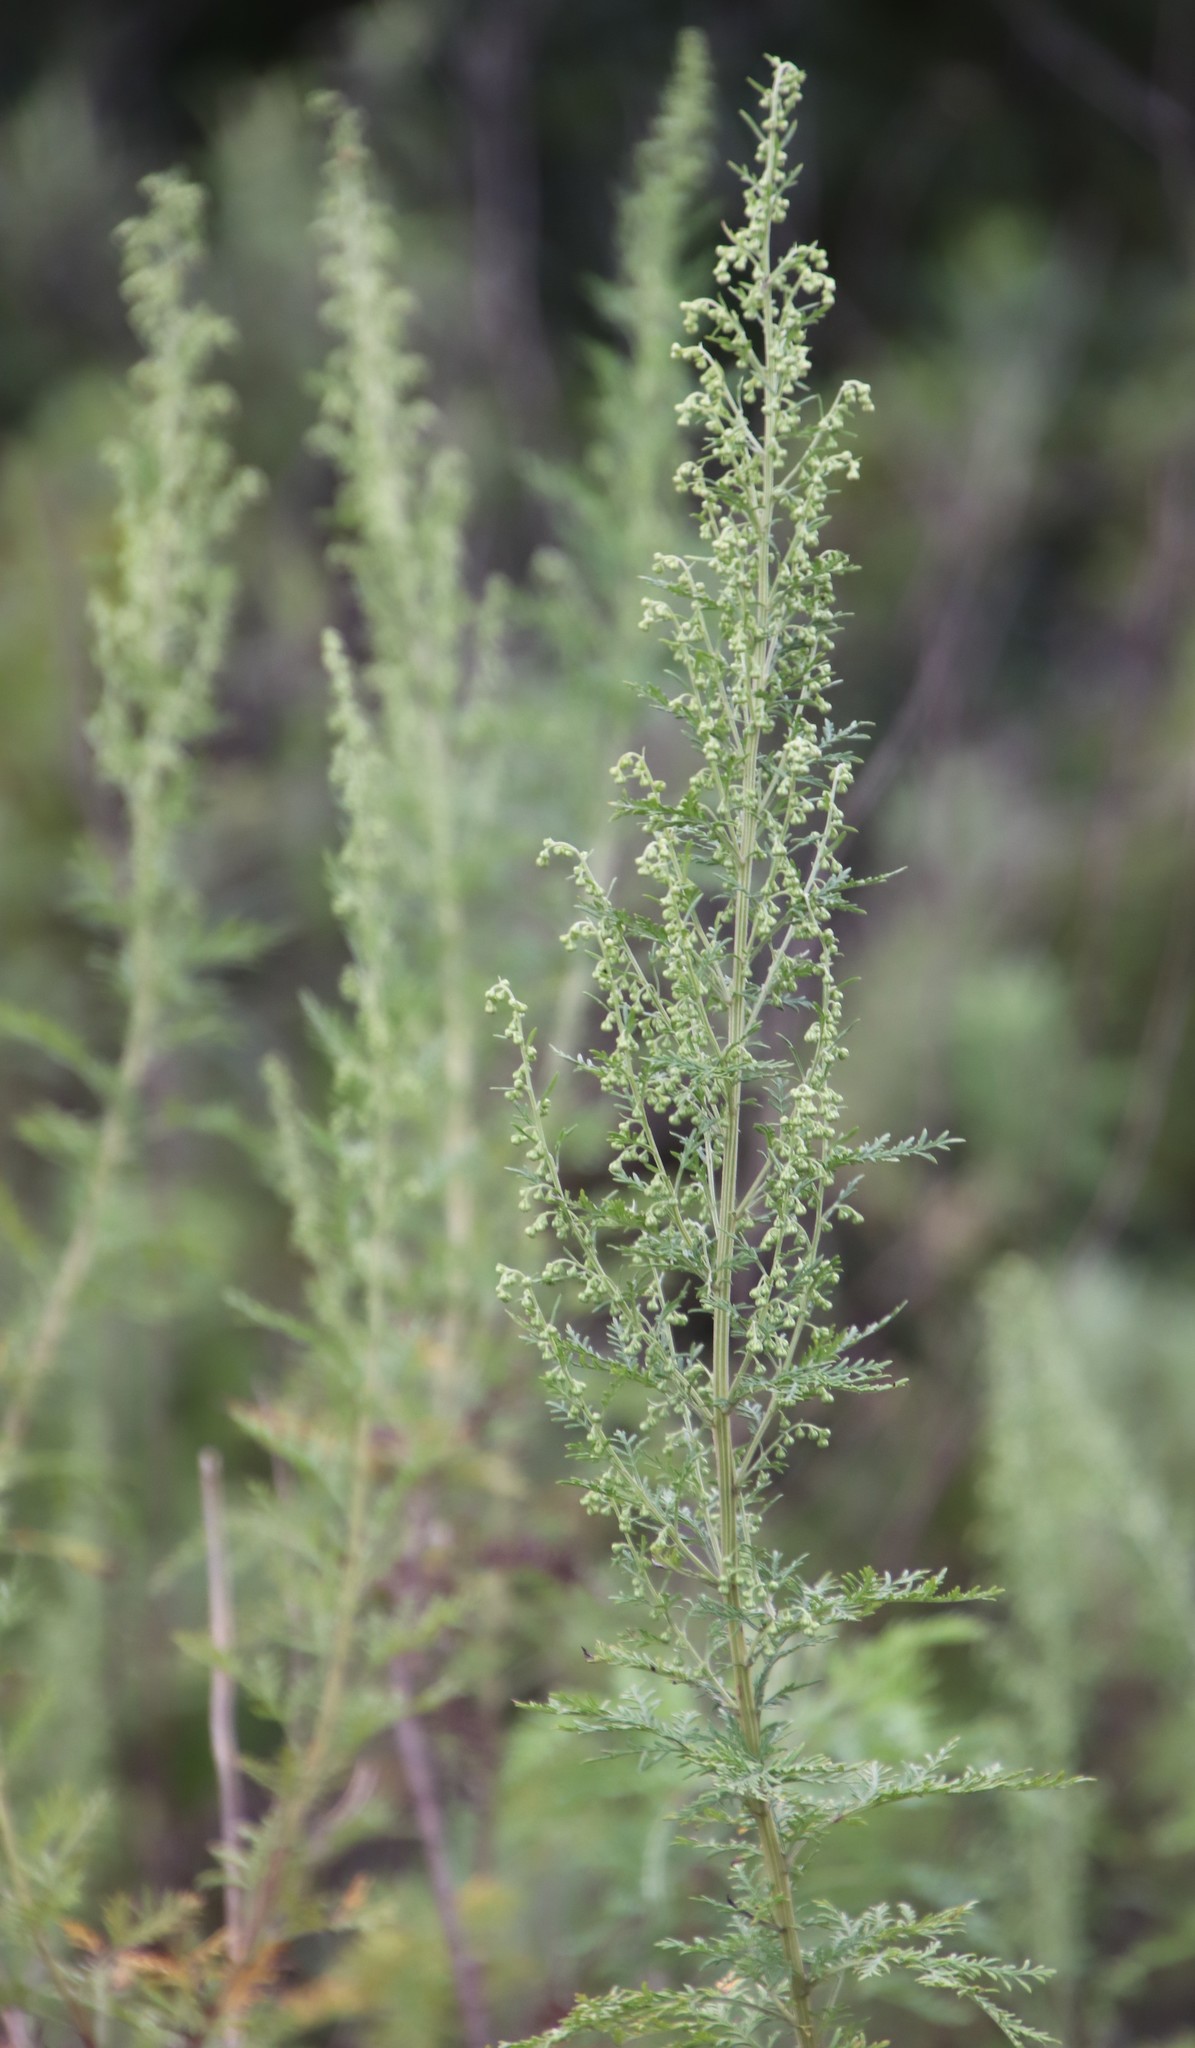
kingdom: Plantae
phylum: Tracheophyta
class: Magnoliopsida
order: Asterales
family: Asteraceae
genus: Artemisia
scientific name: Artemisia afra
